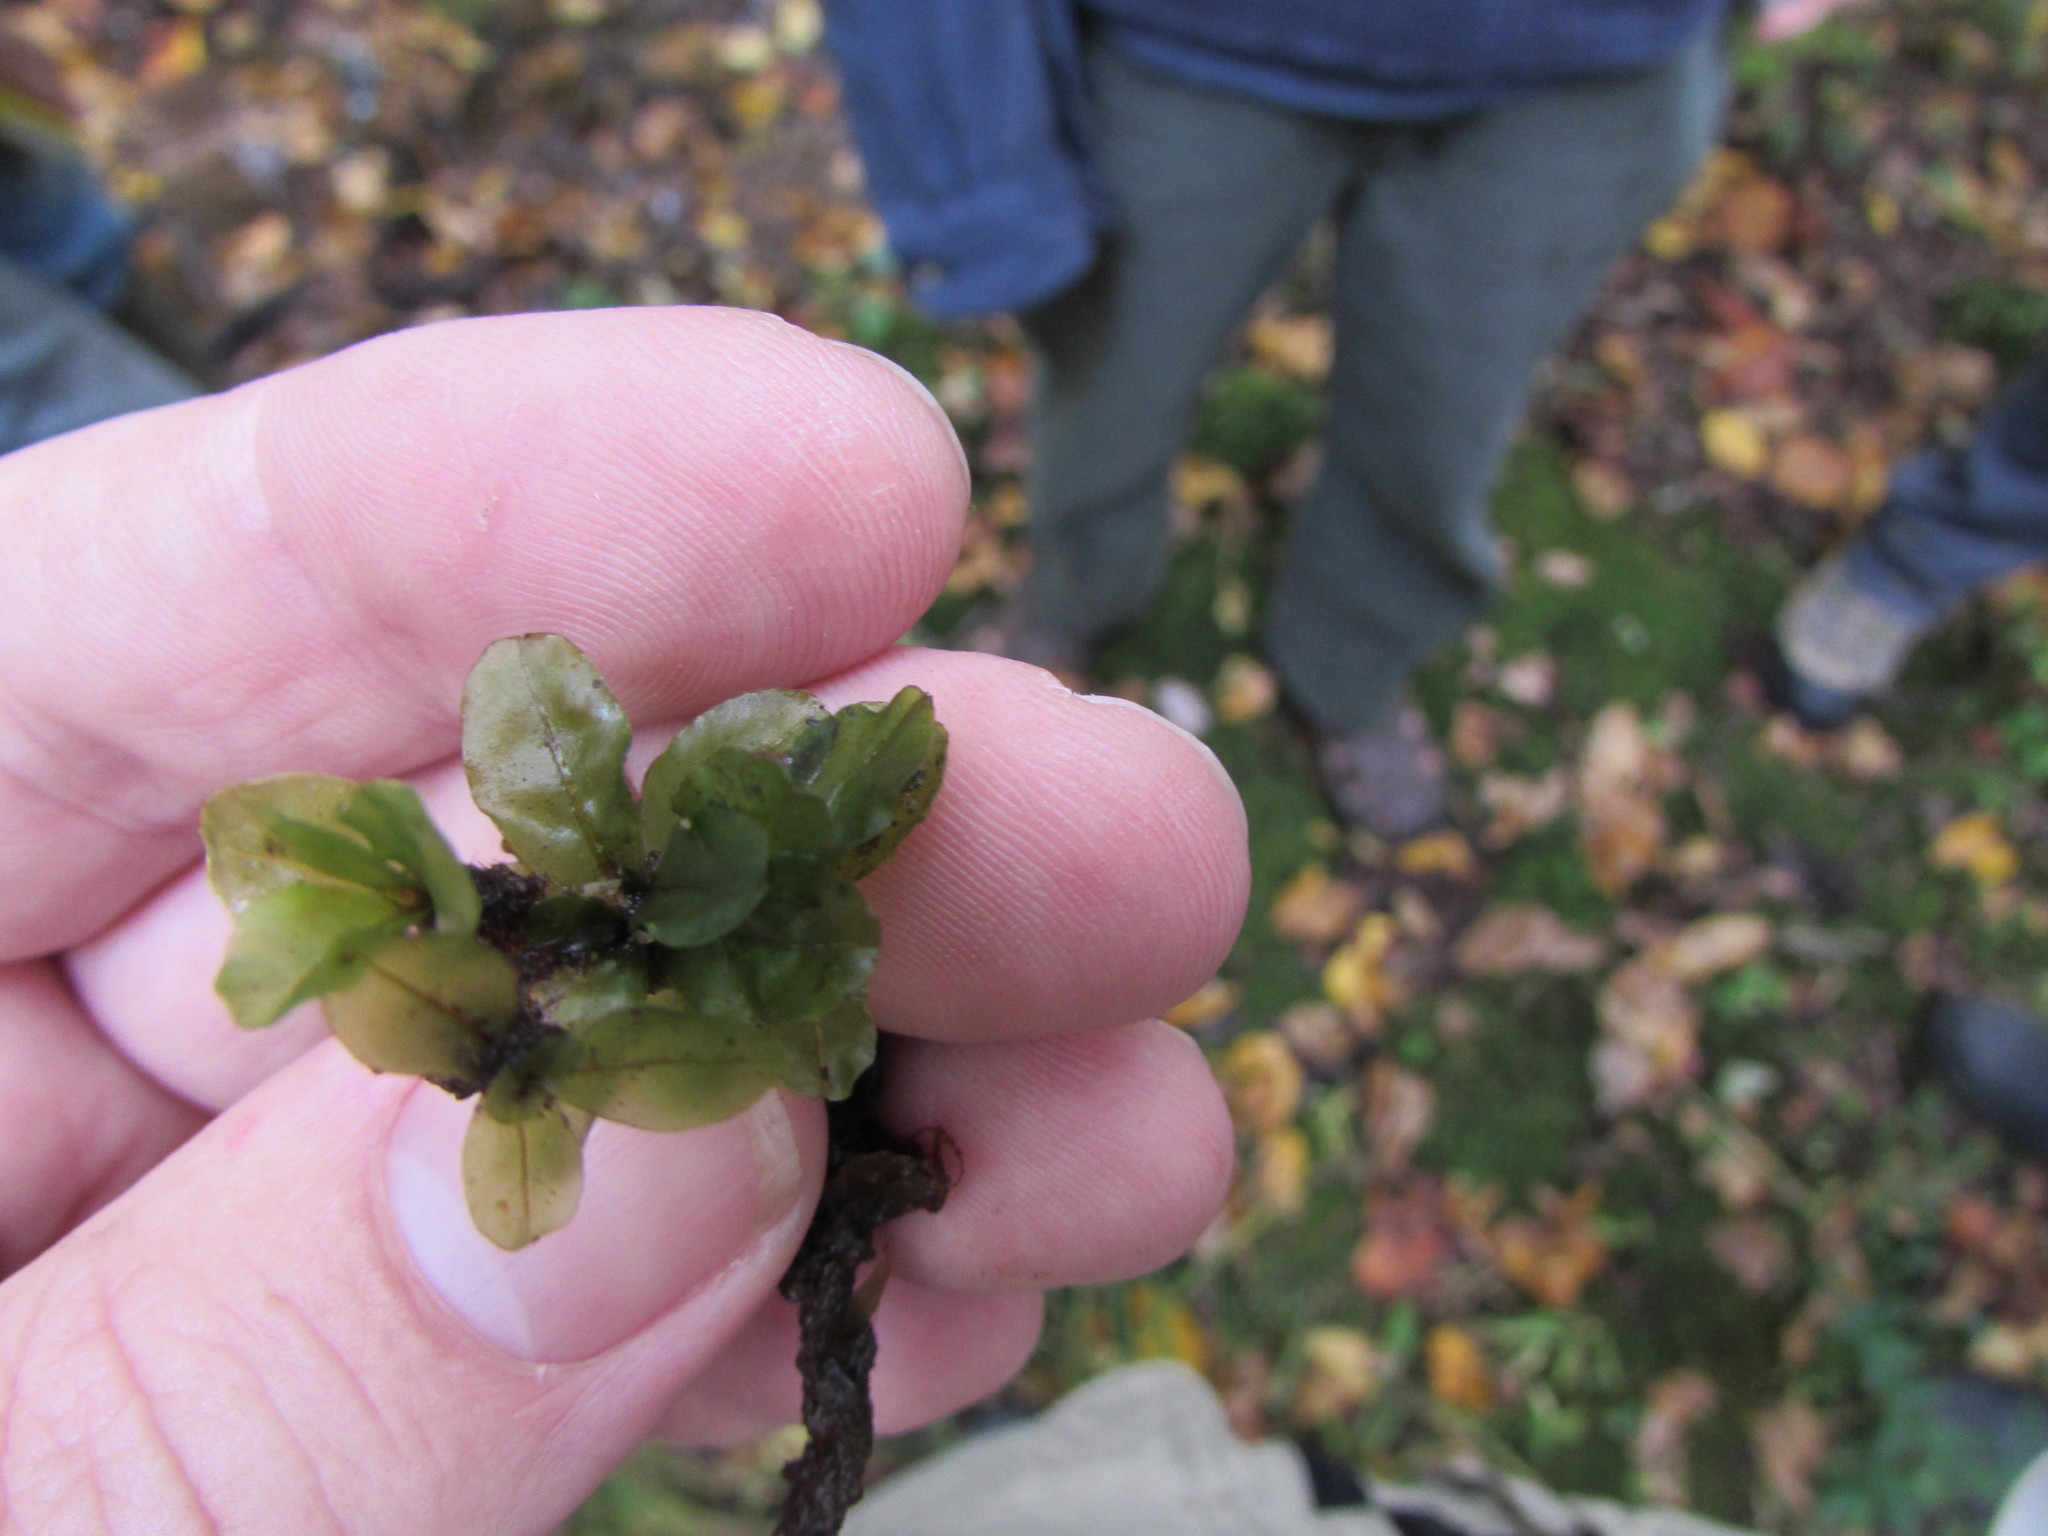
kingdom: Plantae
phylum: Bryophyta
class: Bryopsida
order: Bryales
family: Mniaceae
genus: Rhizomnium
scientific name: Rhizomnium punctatum
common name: Dotted leafy moss
